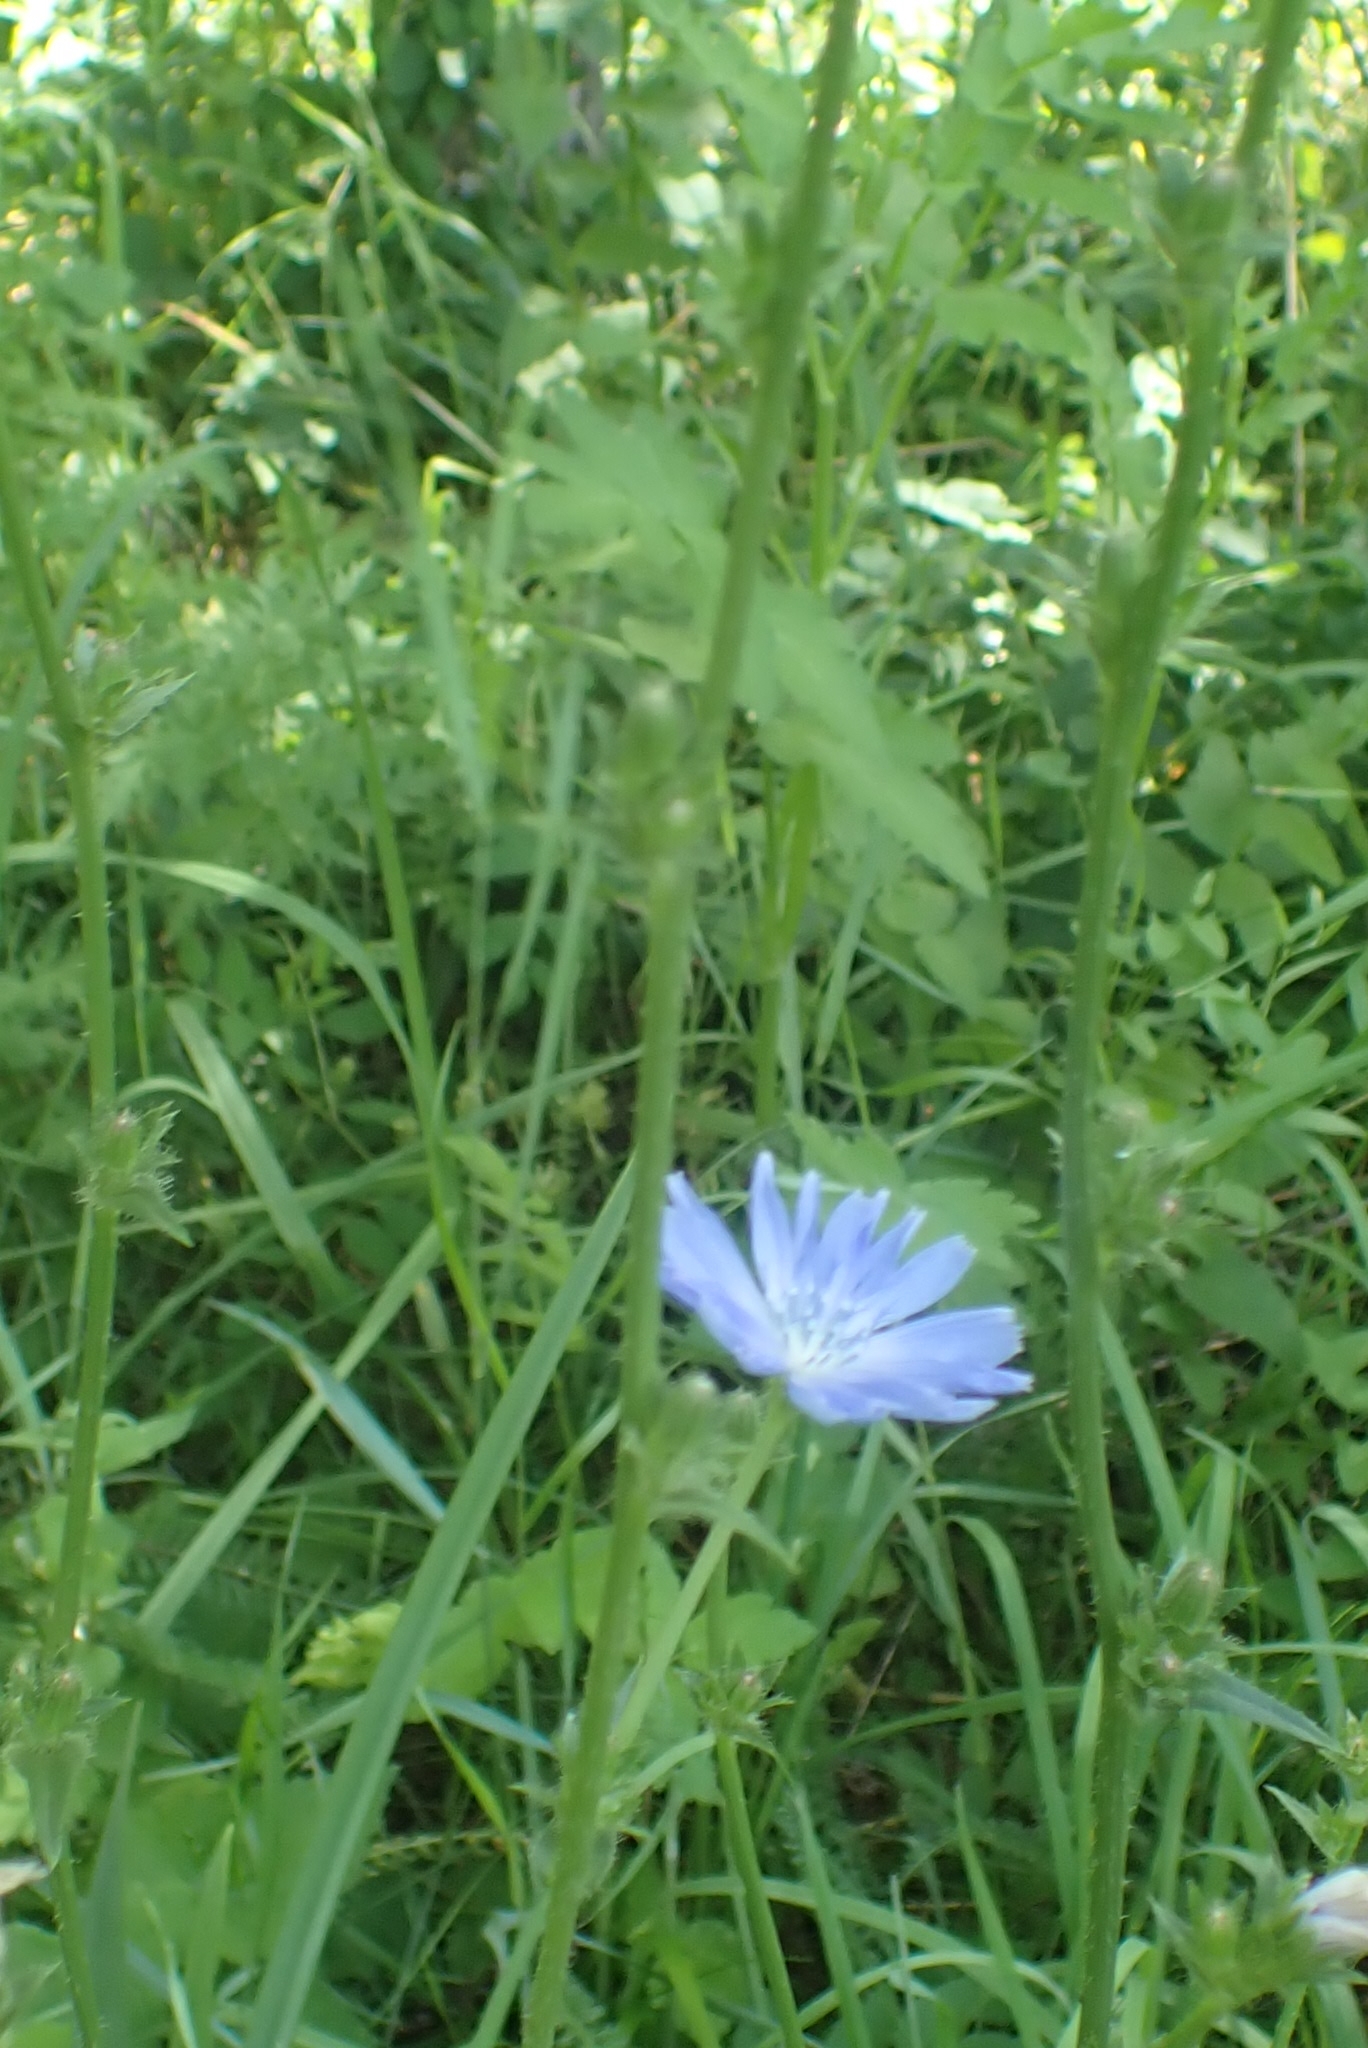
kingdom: Plantae
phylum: Tracheophyta
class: Magnoliopsida
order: Asterales
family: Asteraceae
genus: Cichorium
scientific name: Cichorium intybus
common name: Chicory
